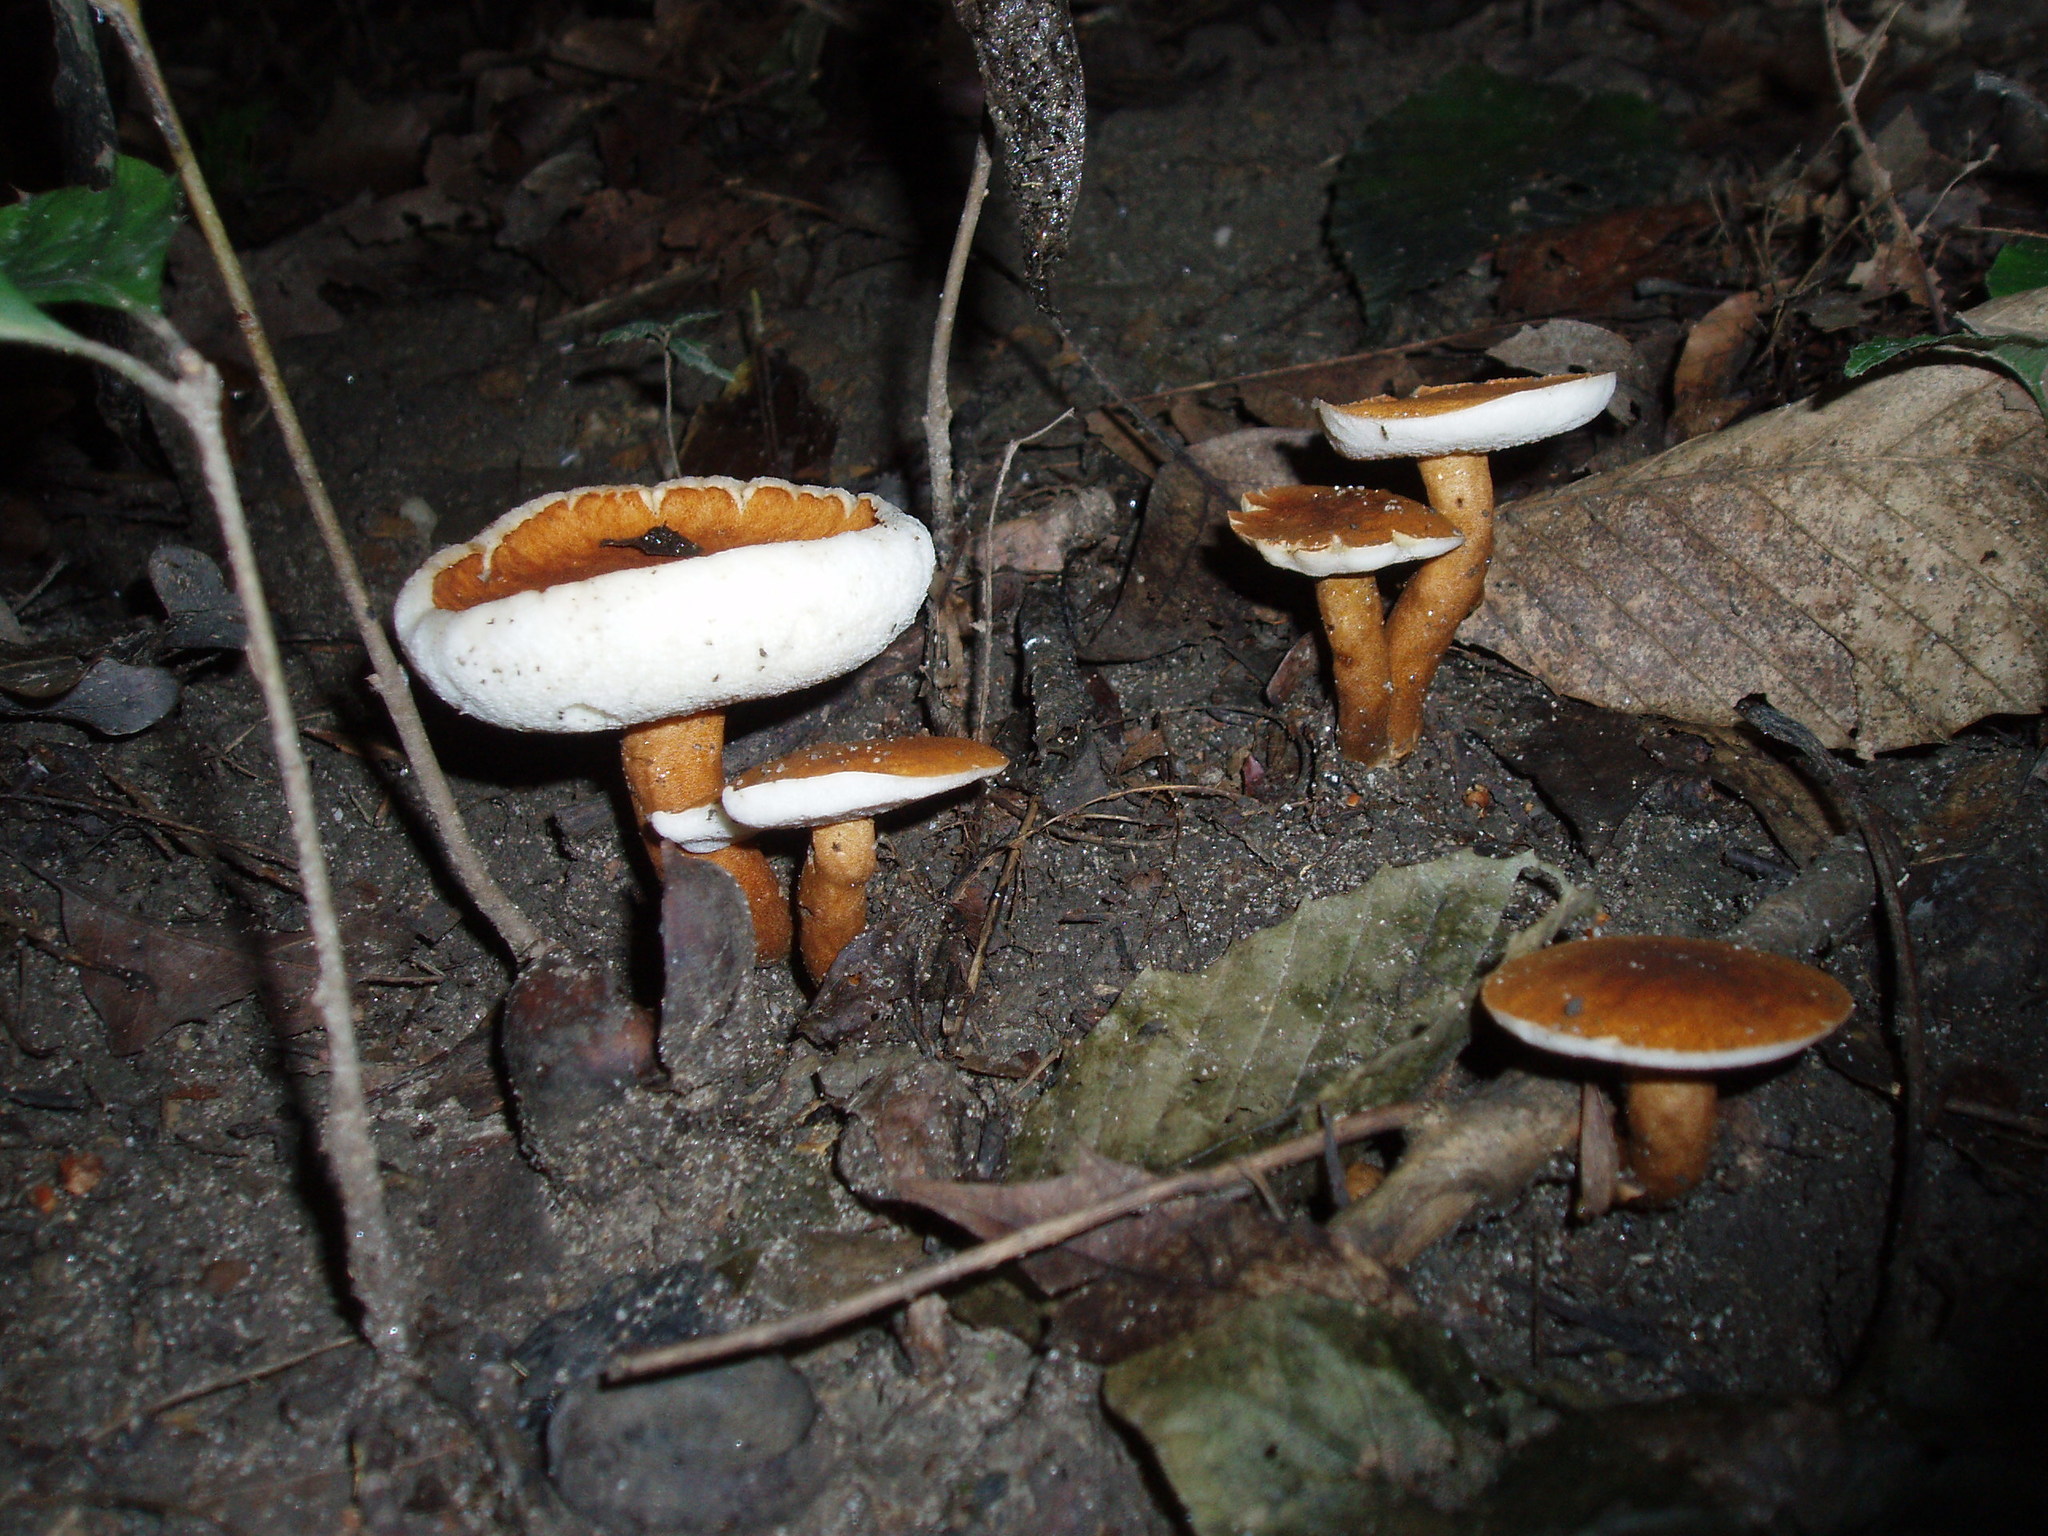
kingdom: Fungi
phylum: Basidiomycota
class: Agaricomycetes
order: Boletales
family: Gyroporaceae
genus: Gyroporus
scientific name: Gyroporus castaneus
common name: Chestnut bolete
